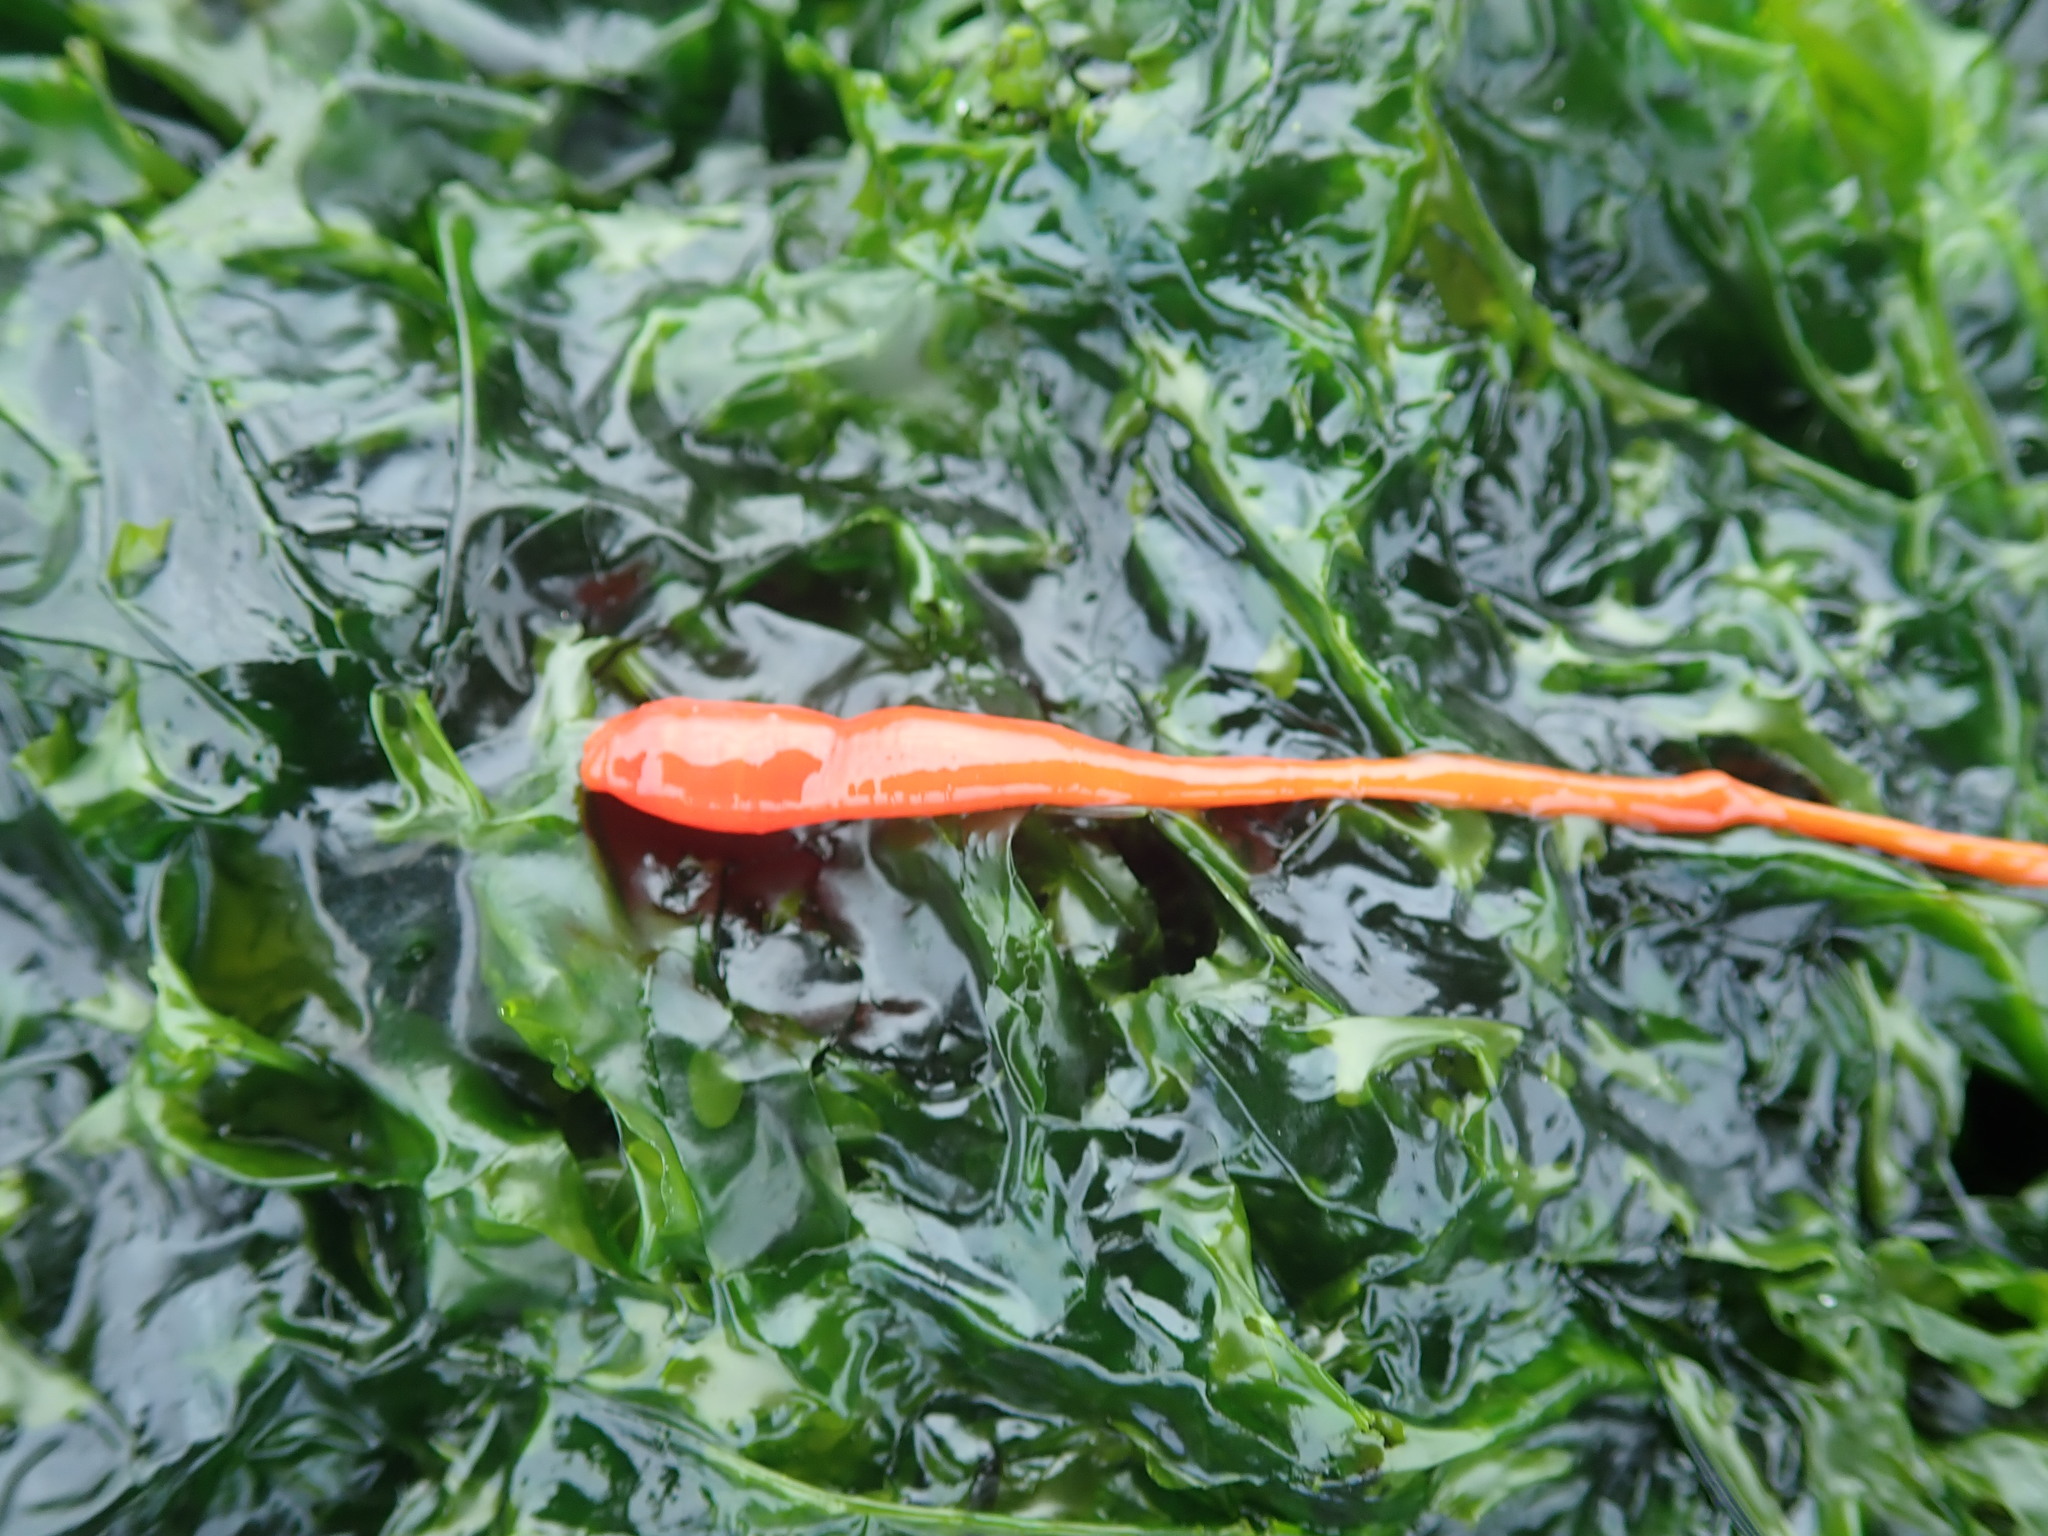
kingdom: Animalia
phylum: Nemertea
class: Palaeonemertea
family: Tubulanidae
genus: Tubulanus
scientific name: Tubulanus polymorphus
